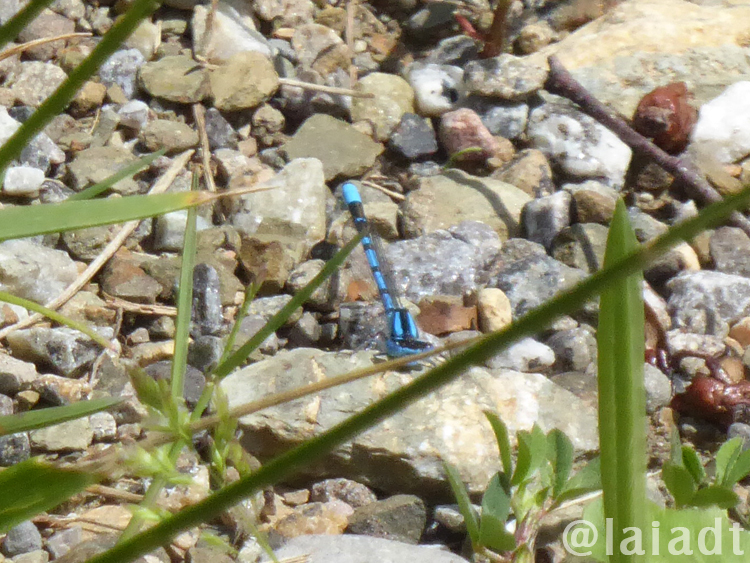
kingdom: Animalia
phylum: Arthropoda
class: Insecta
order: Odonata
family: Coenagrionidae
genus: Enallagma
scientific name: Enallagma cyathigerum
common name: Common blue damselfly
